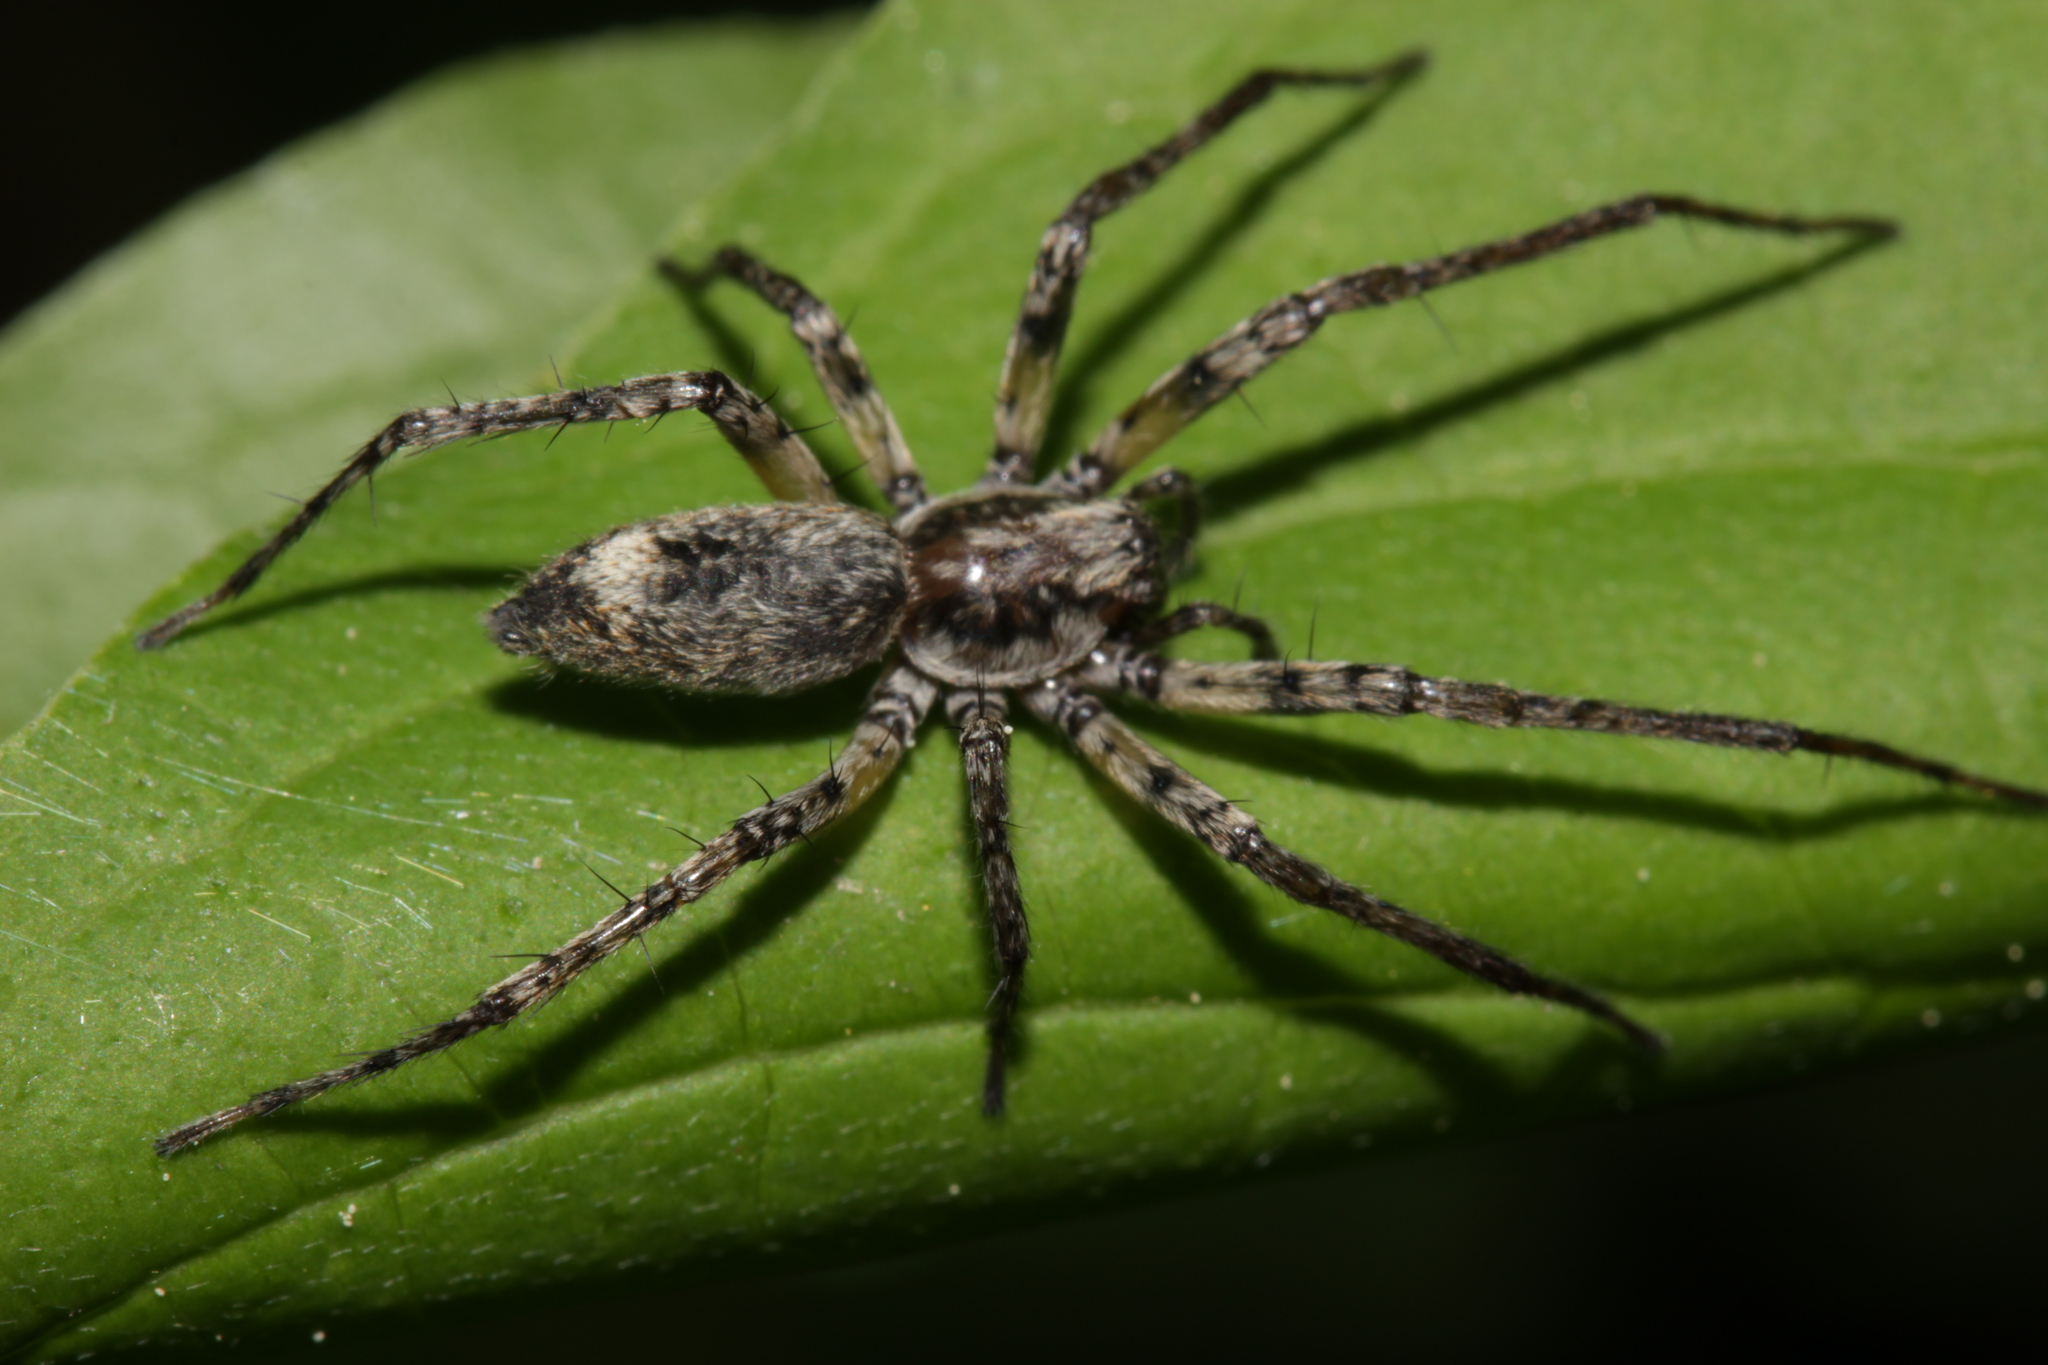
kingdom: Animalia
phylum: Arthropoda
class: Arachnida
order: Araneae
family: Anyphaenidae
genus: Anyphaena
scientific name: Anyphaena accentuata
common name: Buzzing spider
